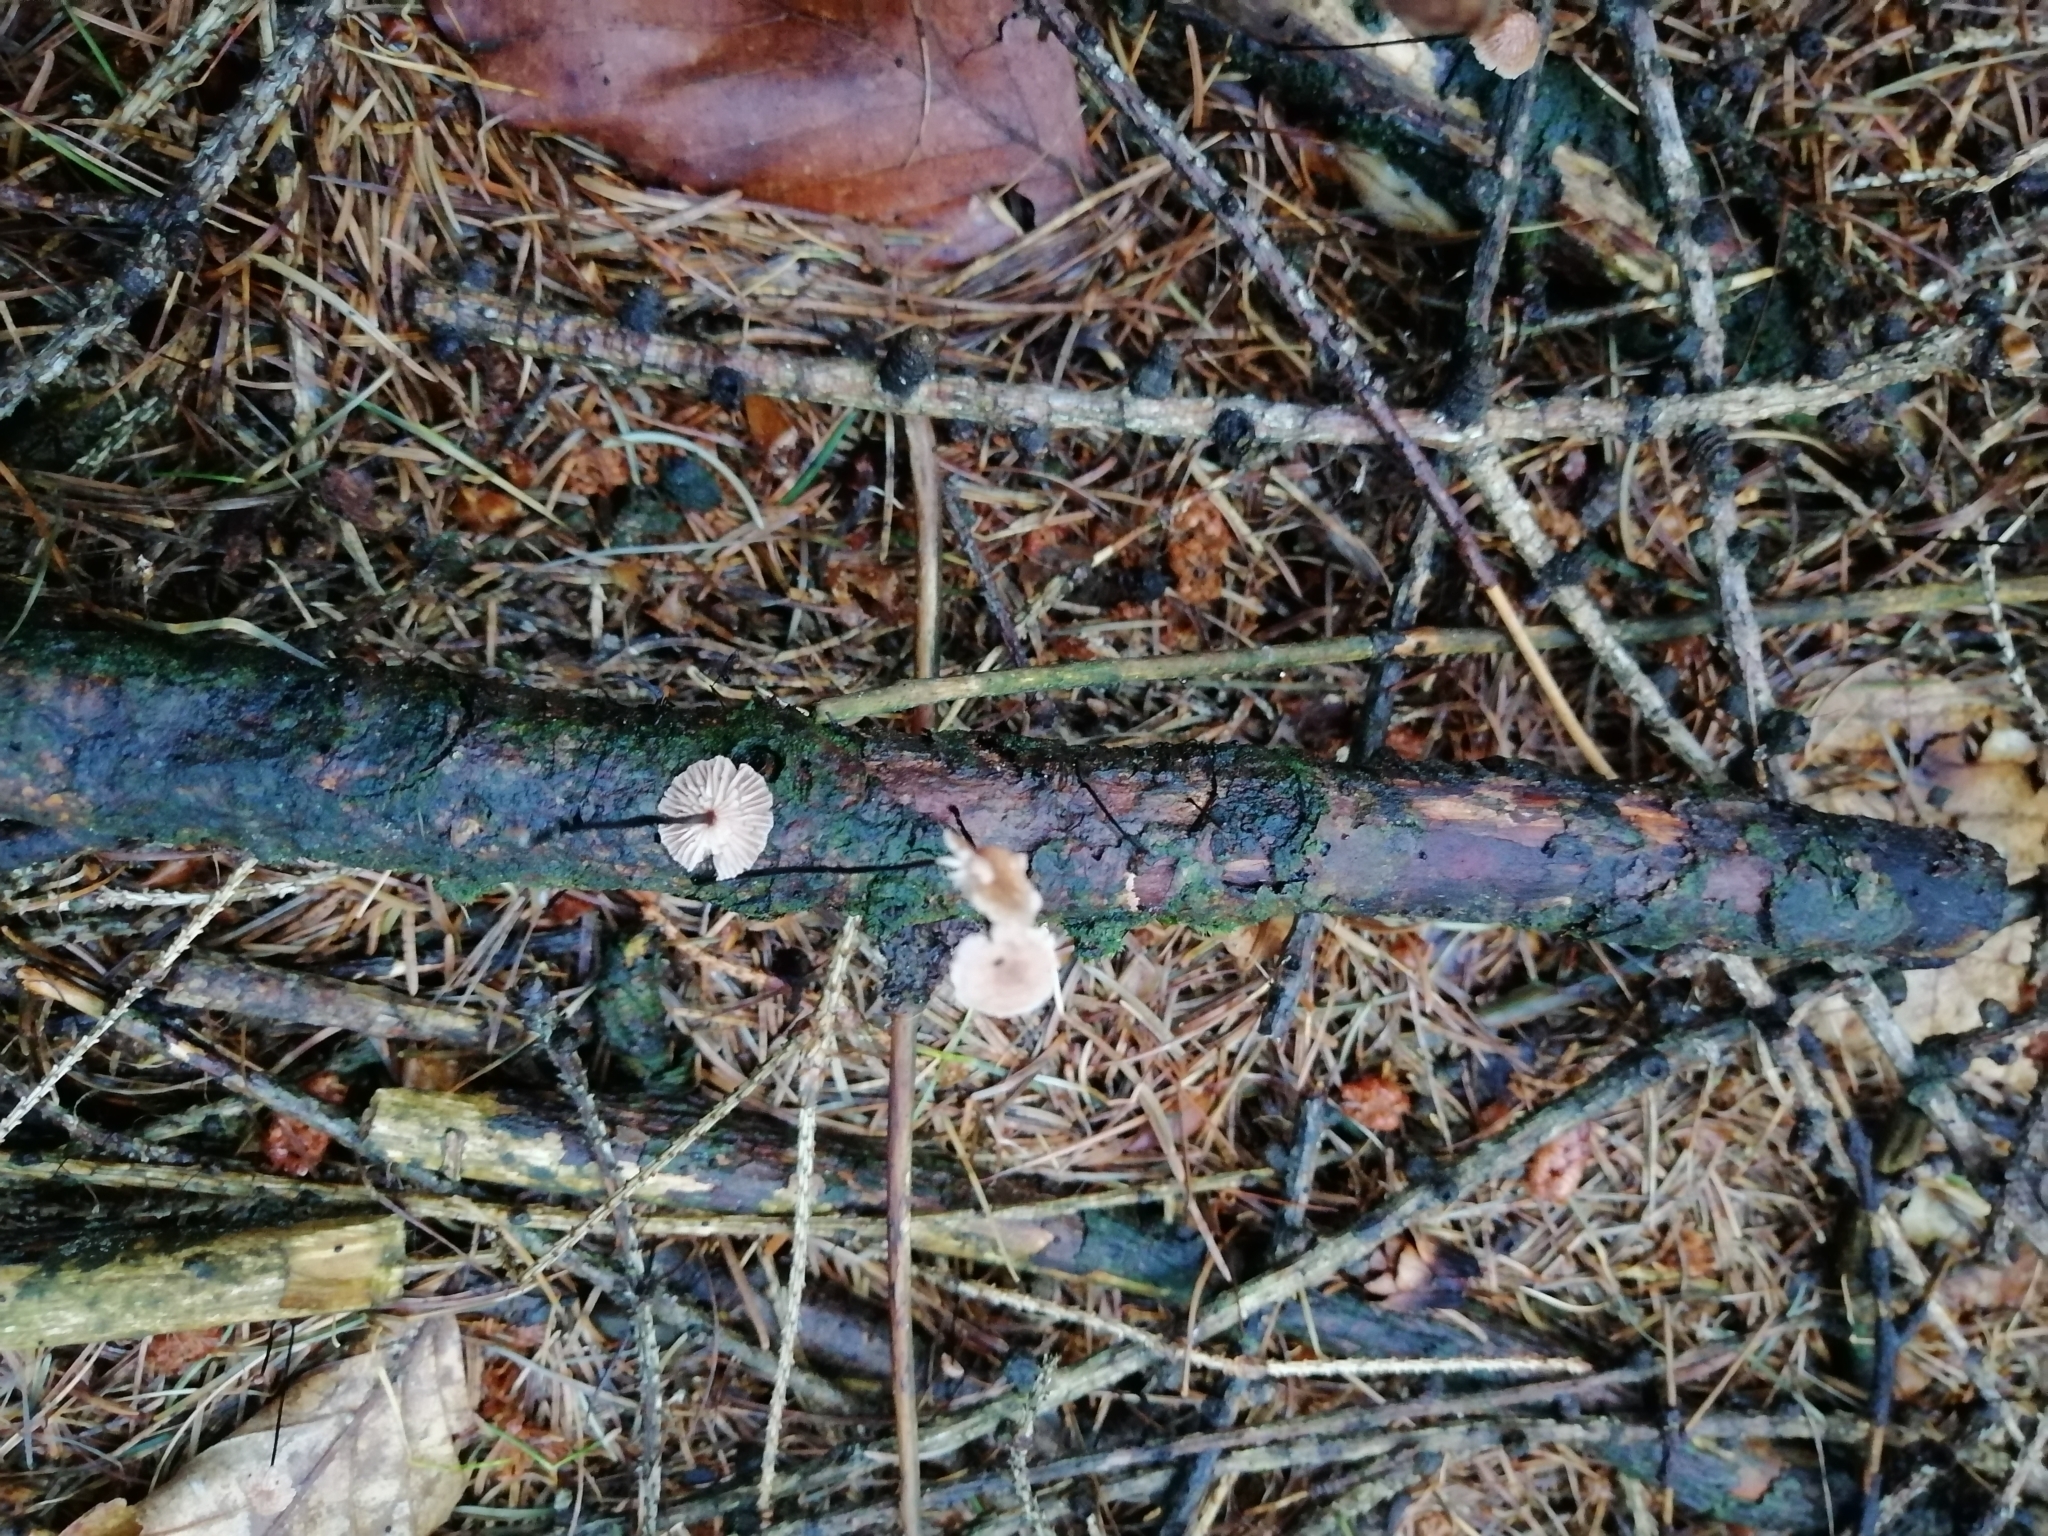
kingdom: Fungi
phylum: Basidiomycota
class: Agaricomycetes
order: Agaricales
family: Omphalotaceae
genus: Gymnopus
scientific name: Gymnopus androsaceus
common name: Horse-hair fungus
